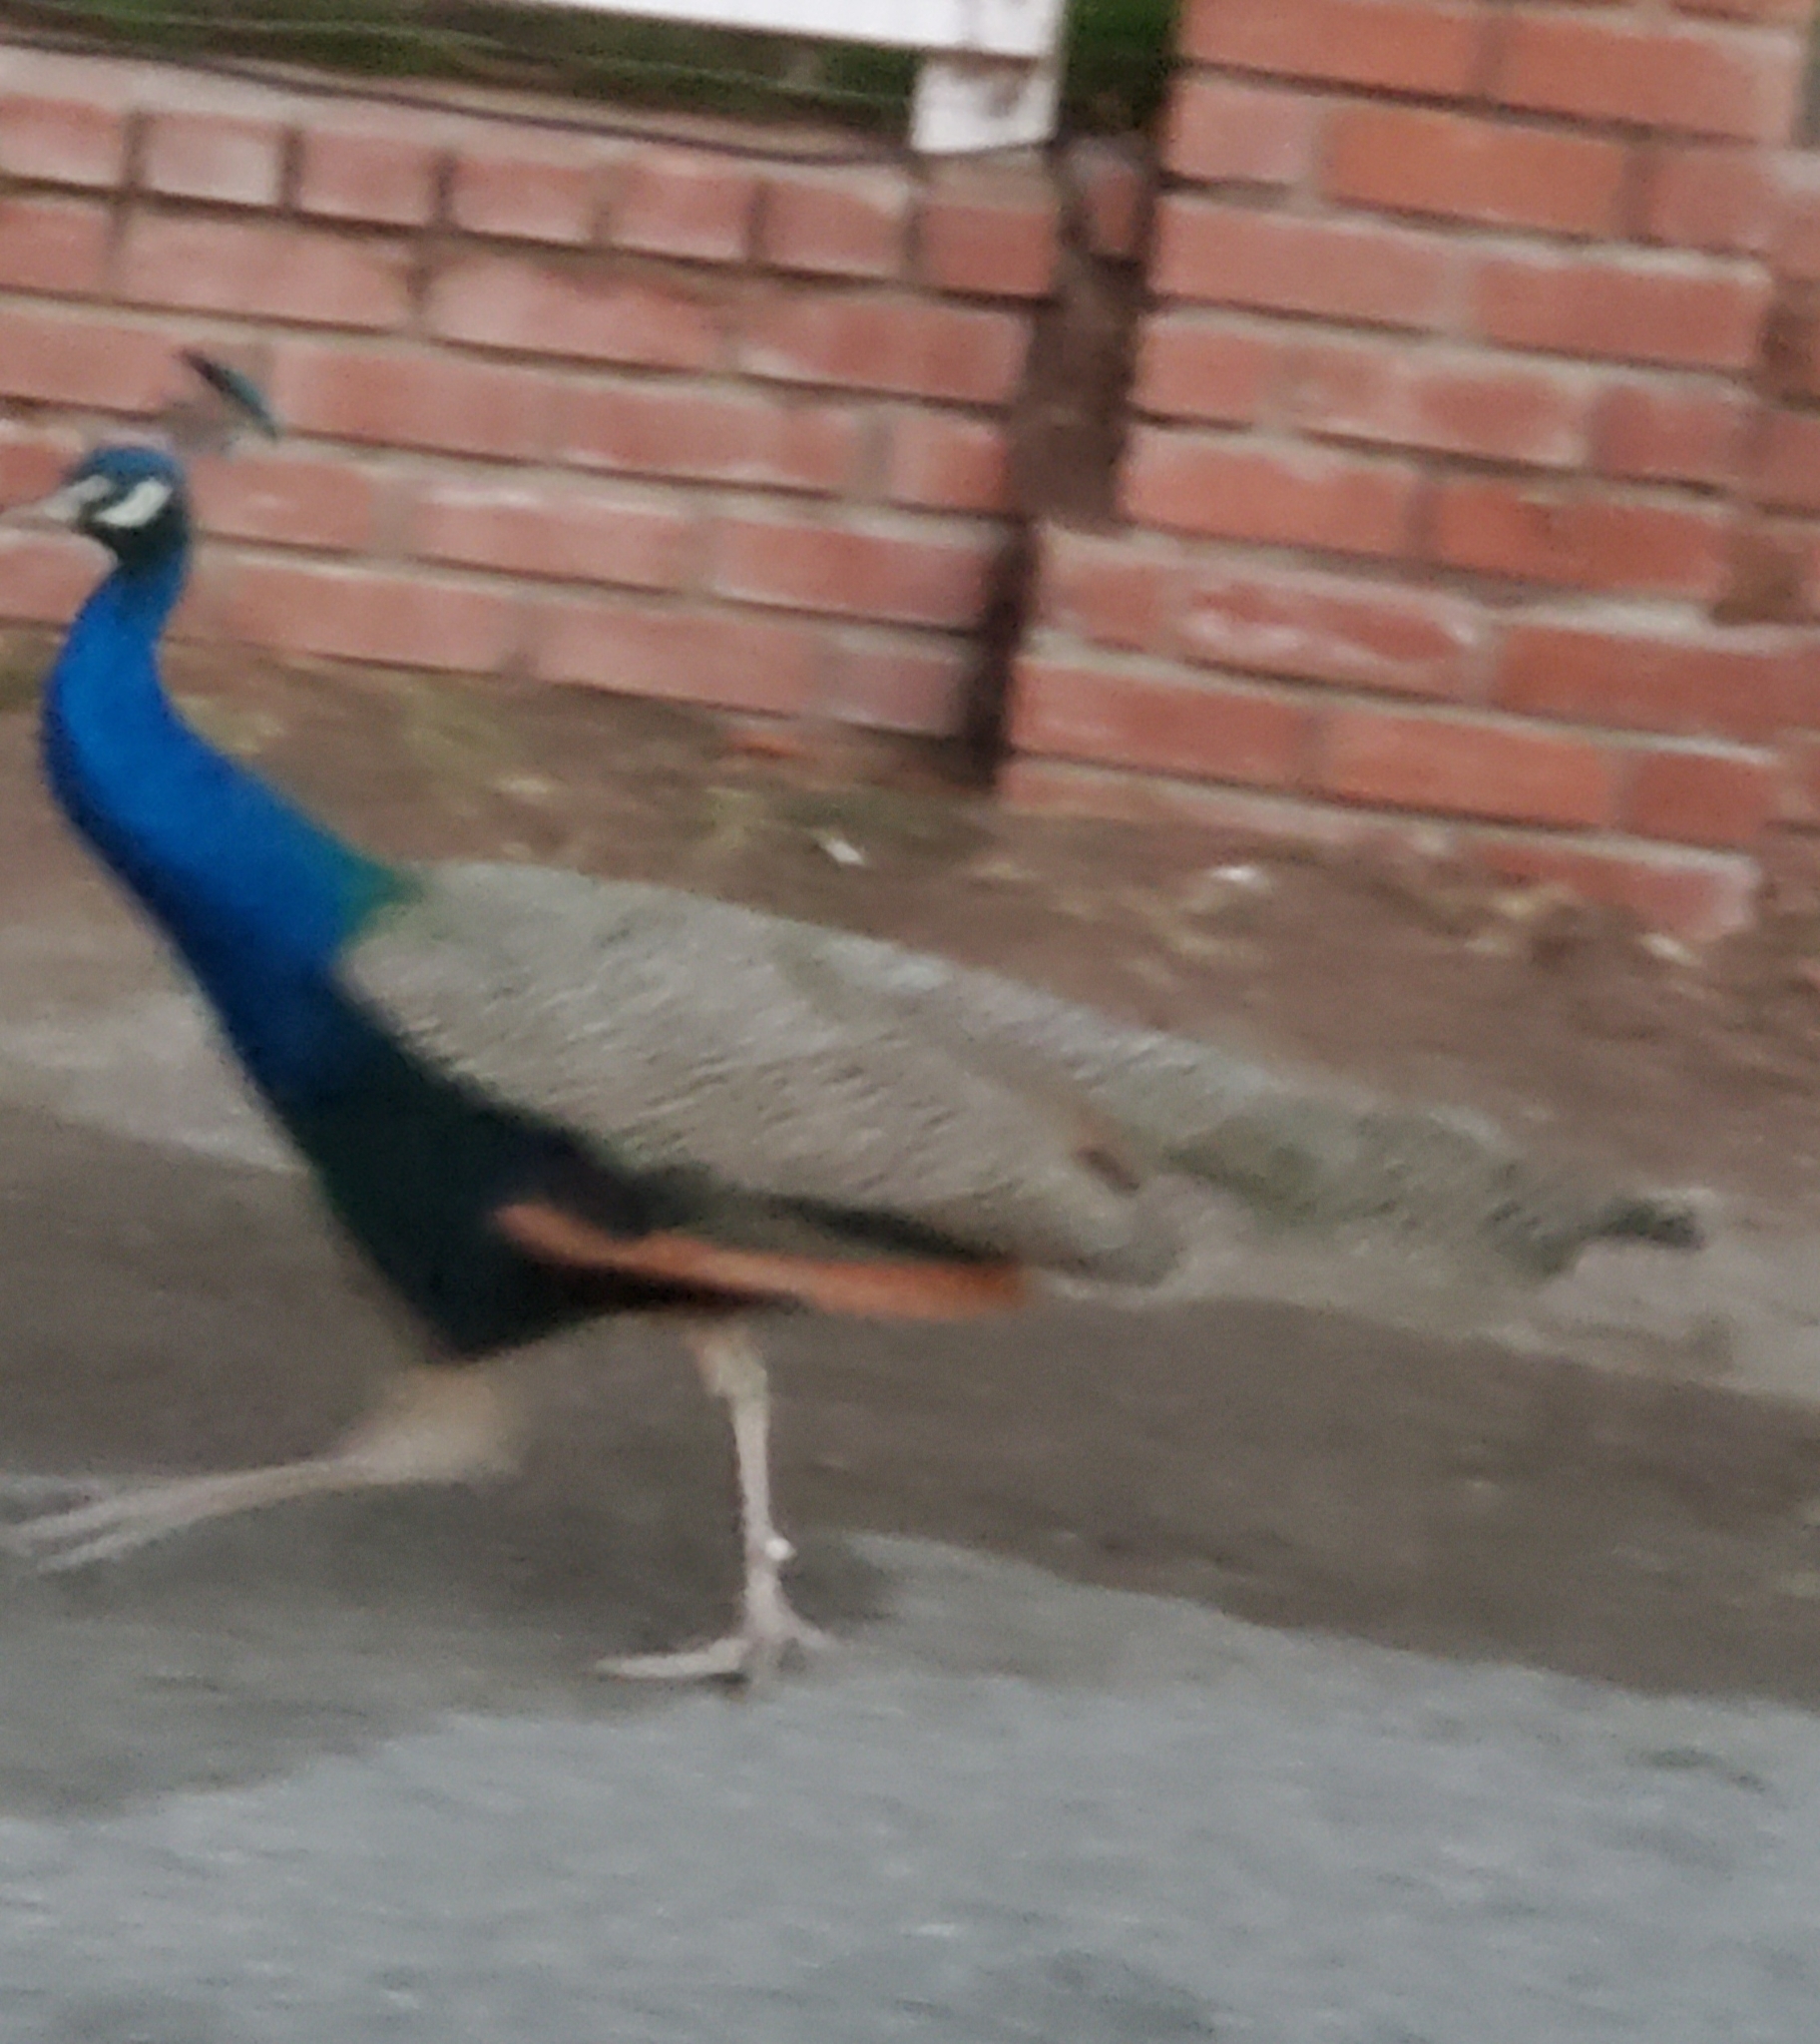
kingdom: Animalia
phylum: Chordata
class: Aves
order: Galliformes
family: Phasianidae
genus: Pavo
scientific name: Pavo cristatus
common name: Indian peafowl
